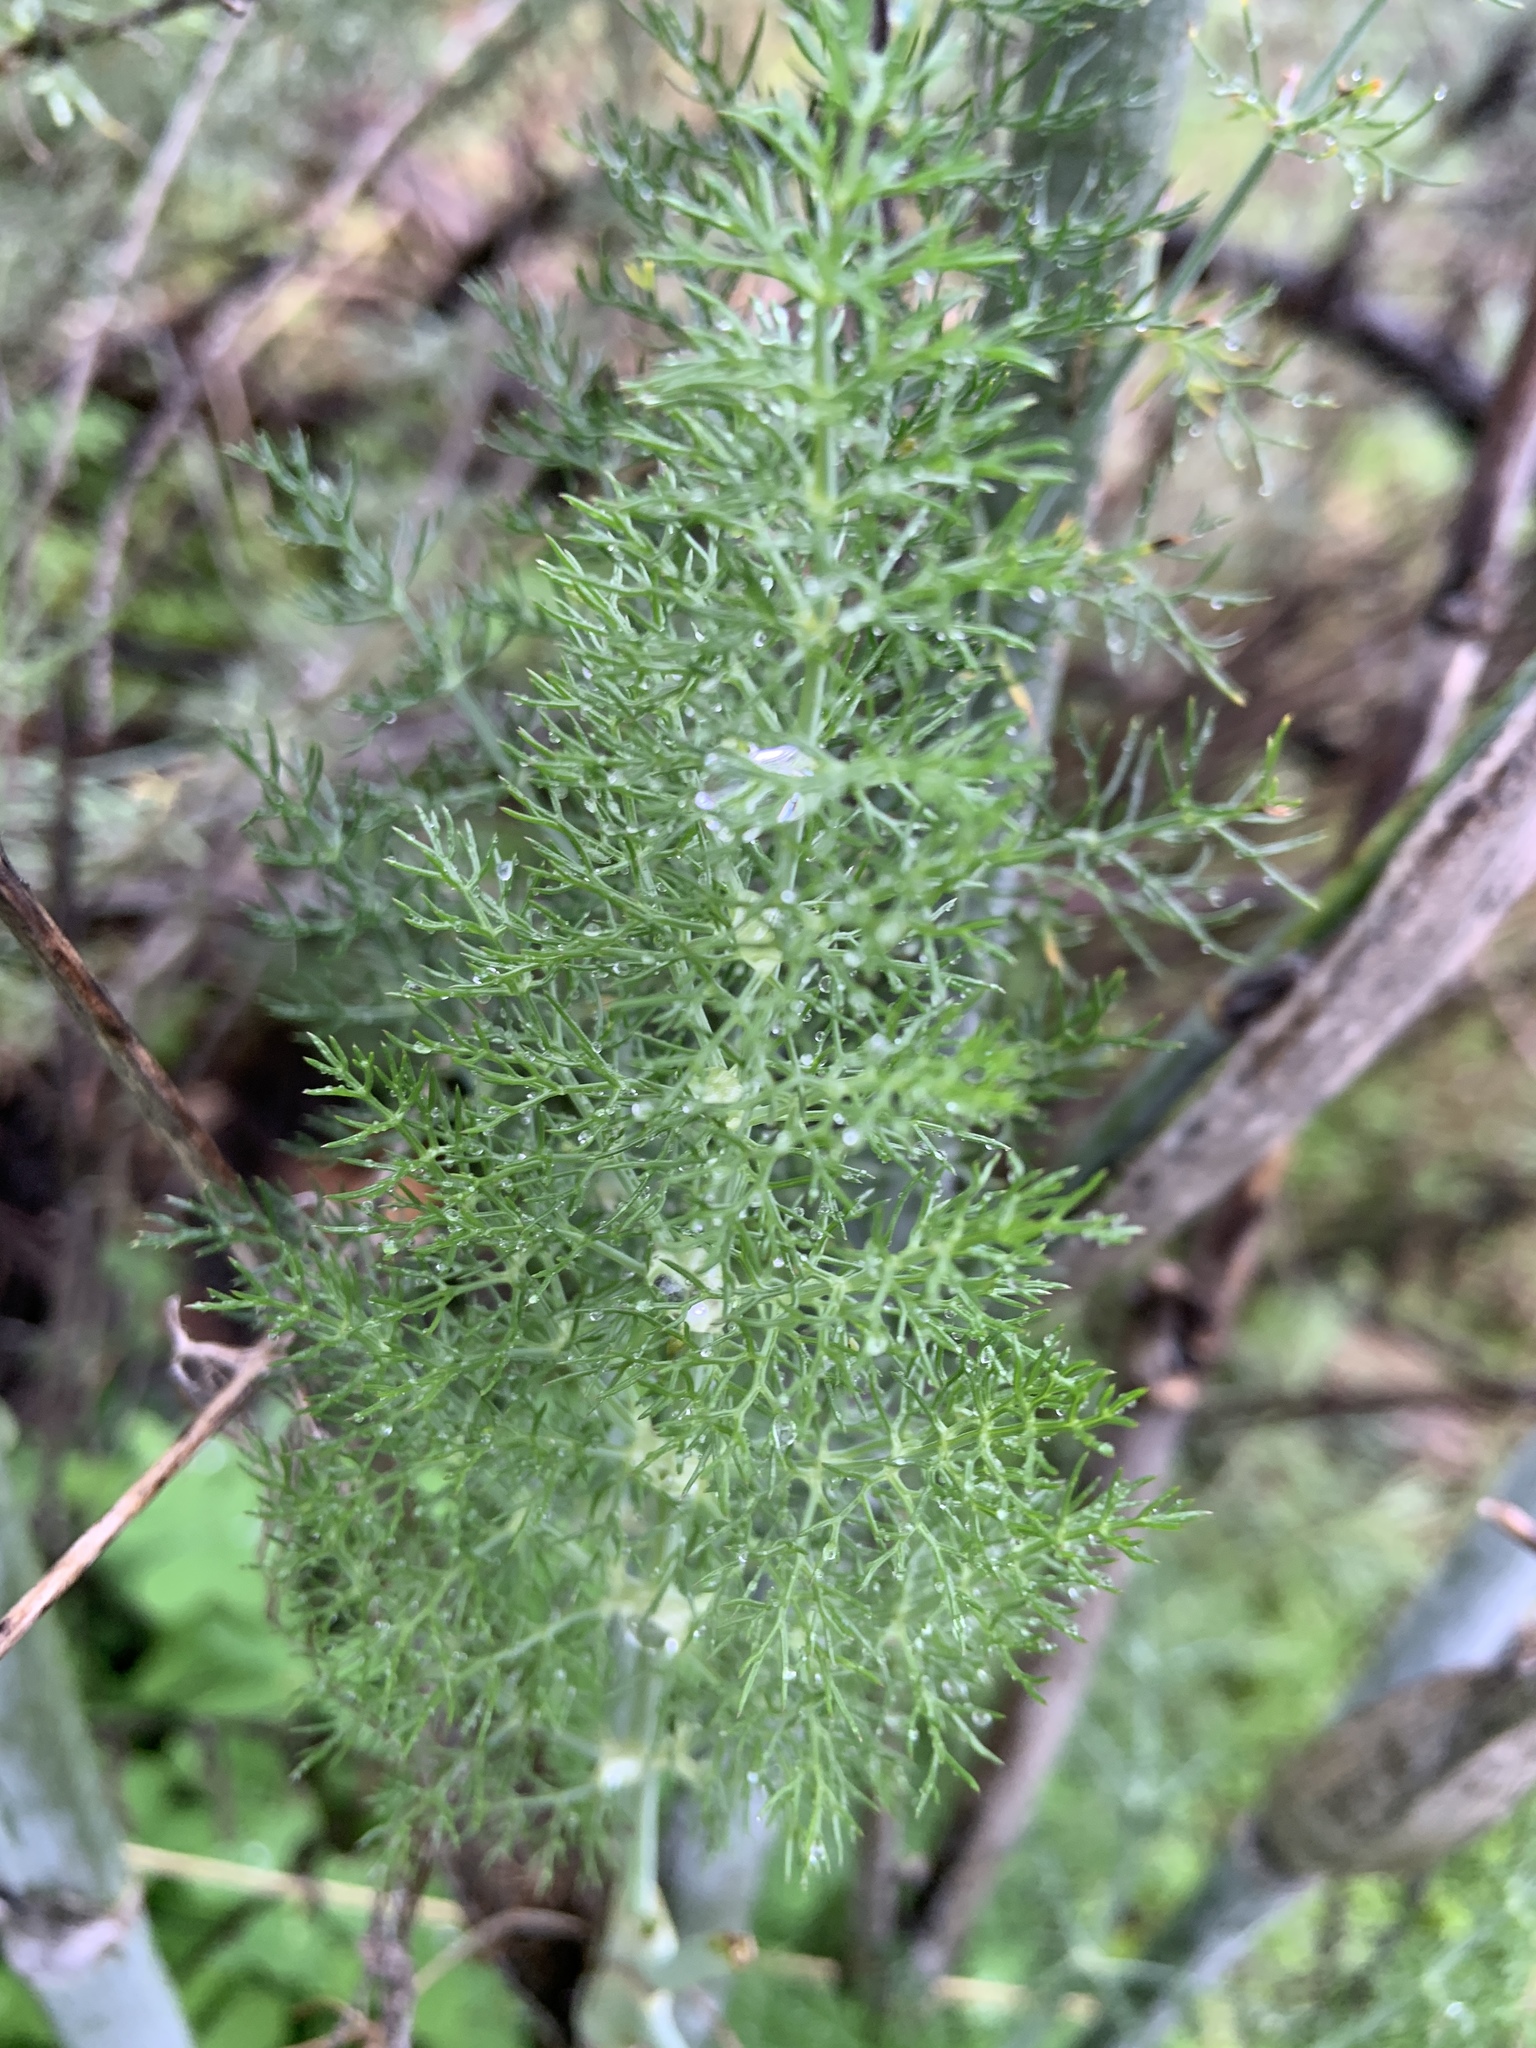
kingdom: Plantae
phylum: Tracheophyta
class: Magnoliopsida
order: Apiales
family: Apiaceae
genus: Foeniculum
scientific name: Foeniculum vulgare
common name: Fennel
